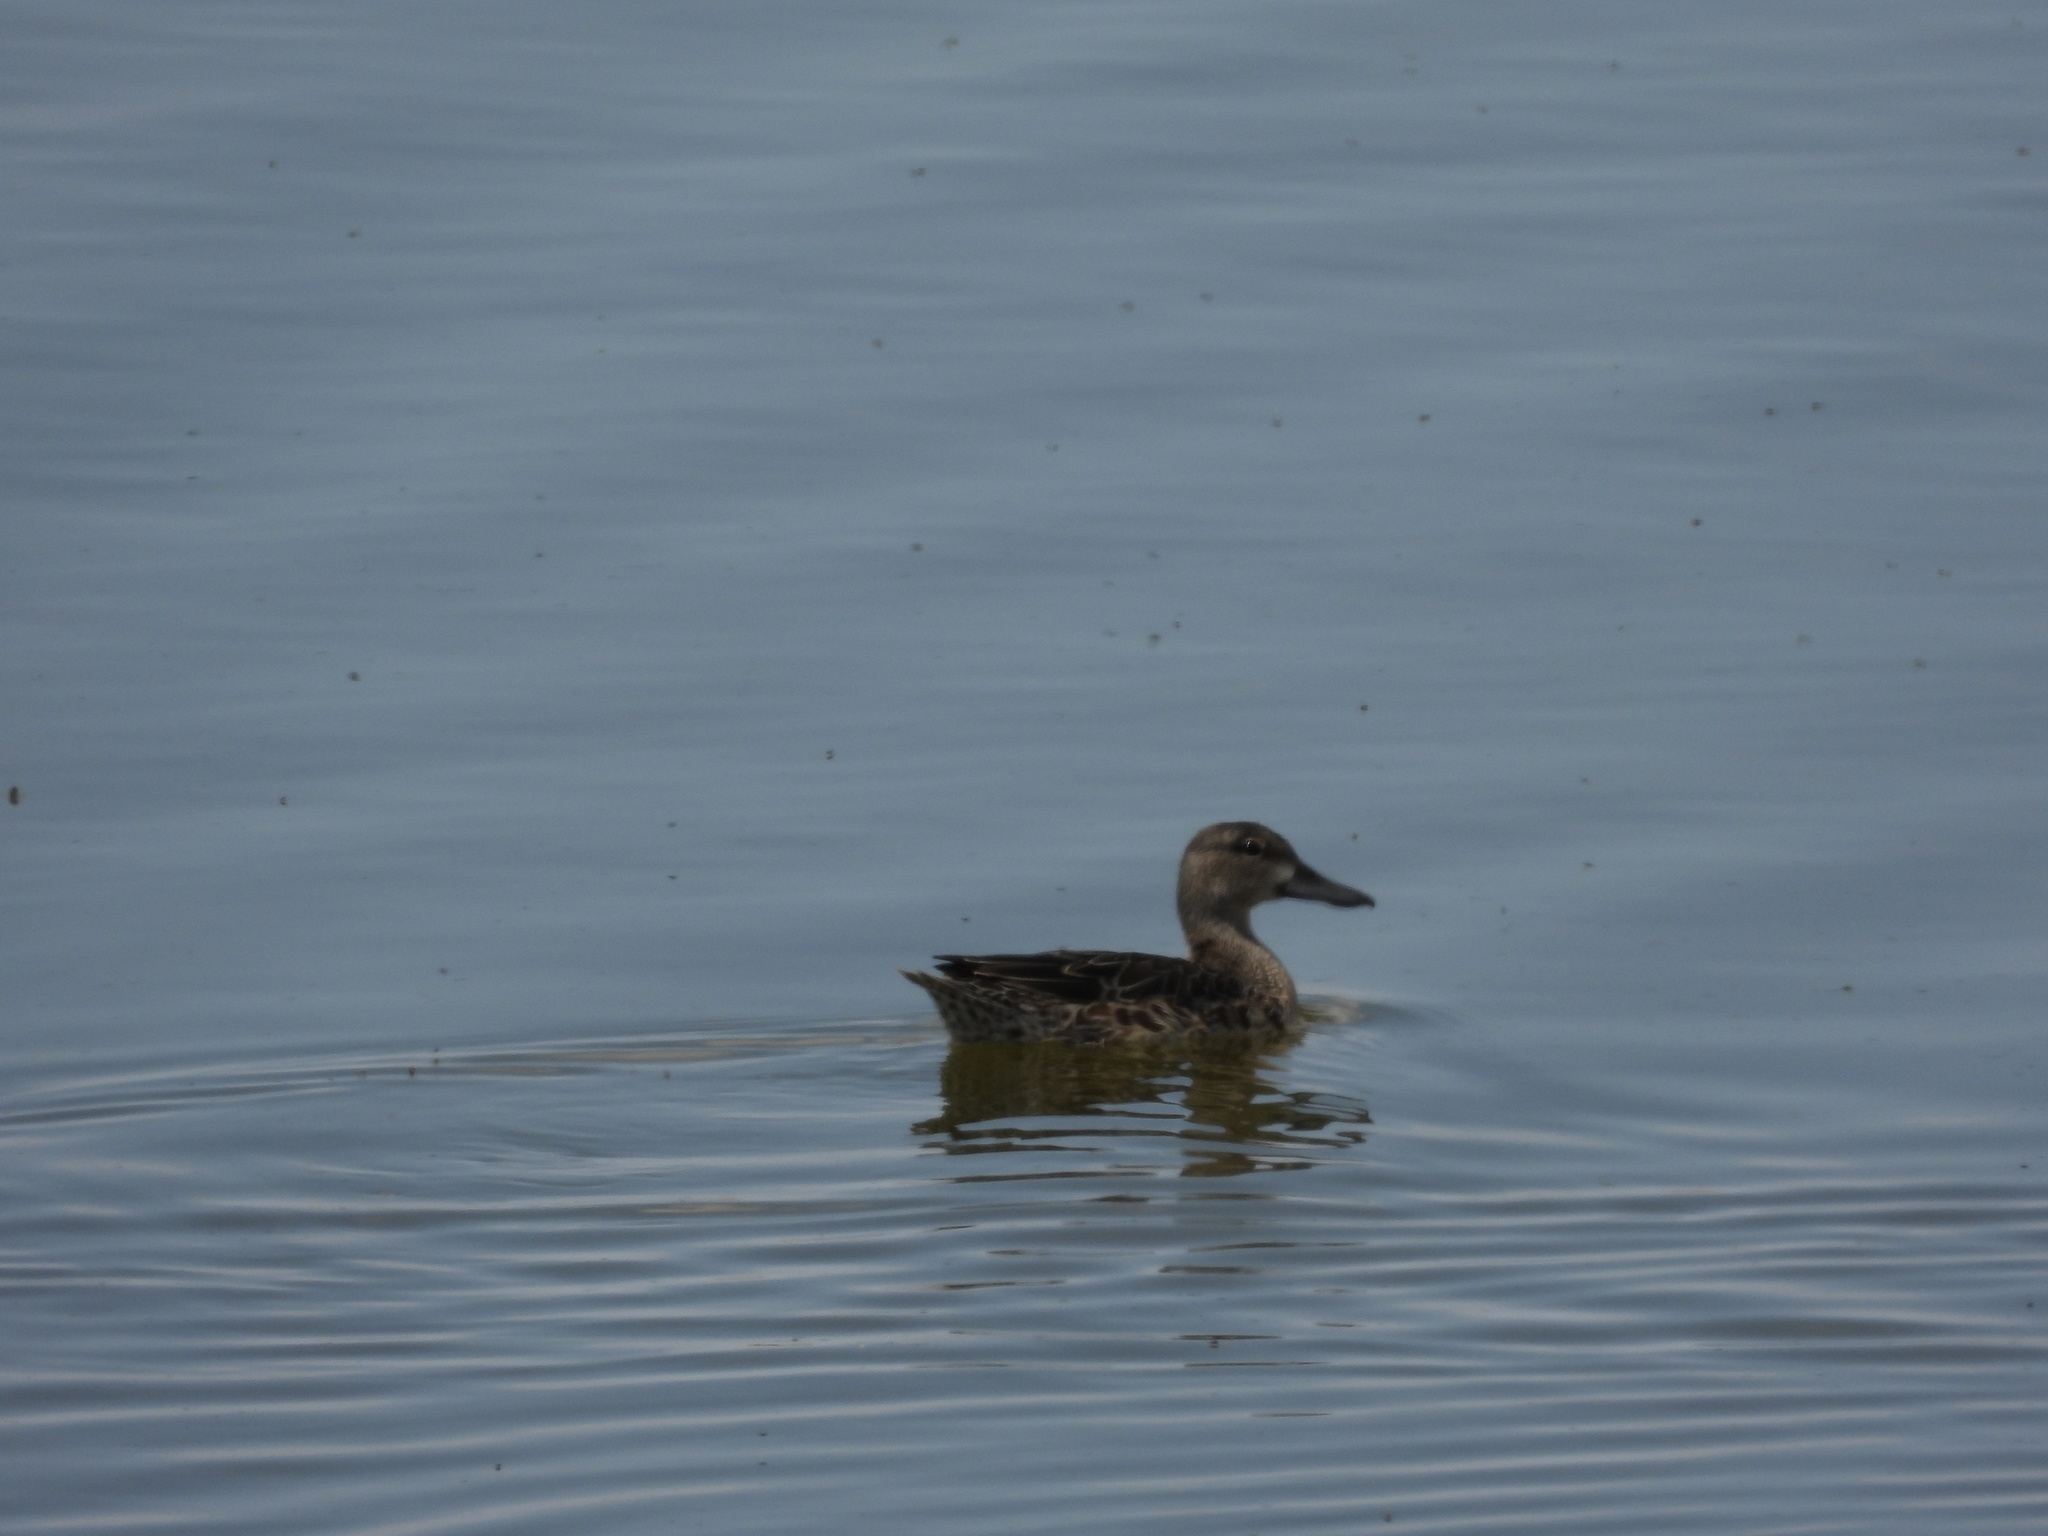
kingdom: Animalia
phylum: Chordata
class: Aves
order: Anseriformes
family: Anatidae
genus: Spatula
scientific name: Spatula discors
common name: Blue-winged teal
